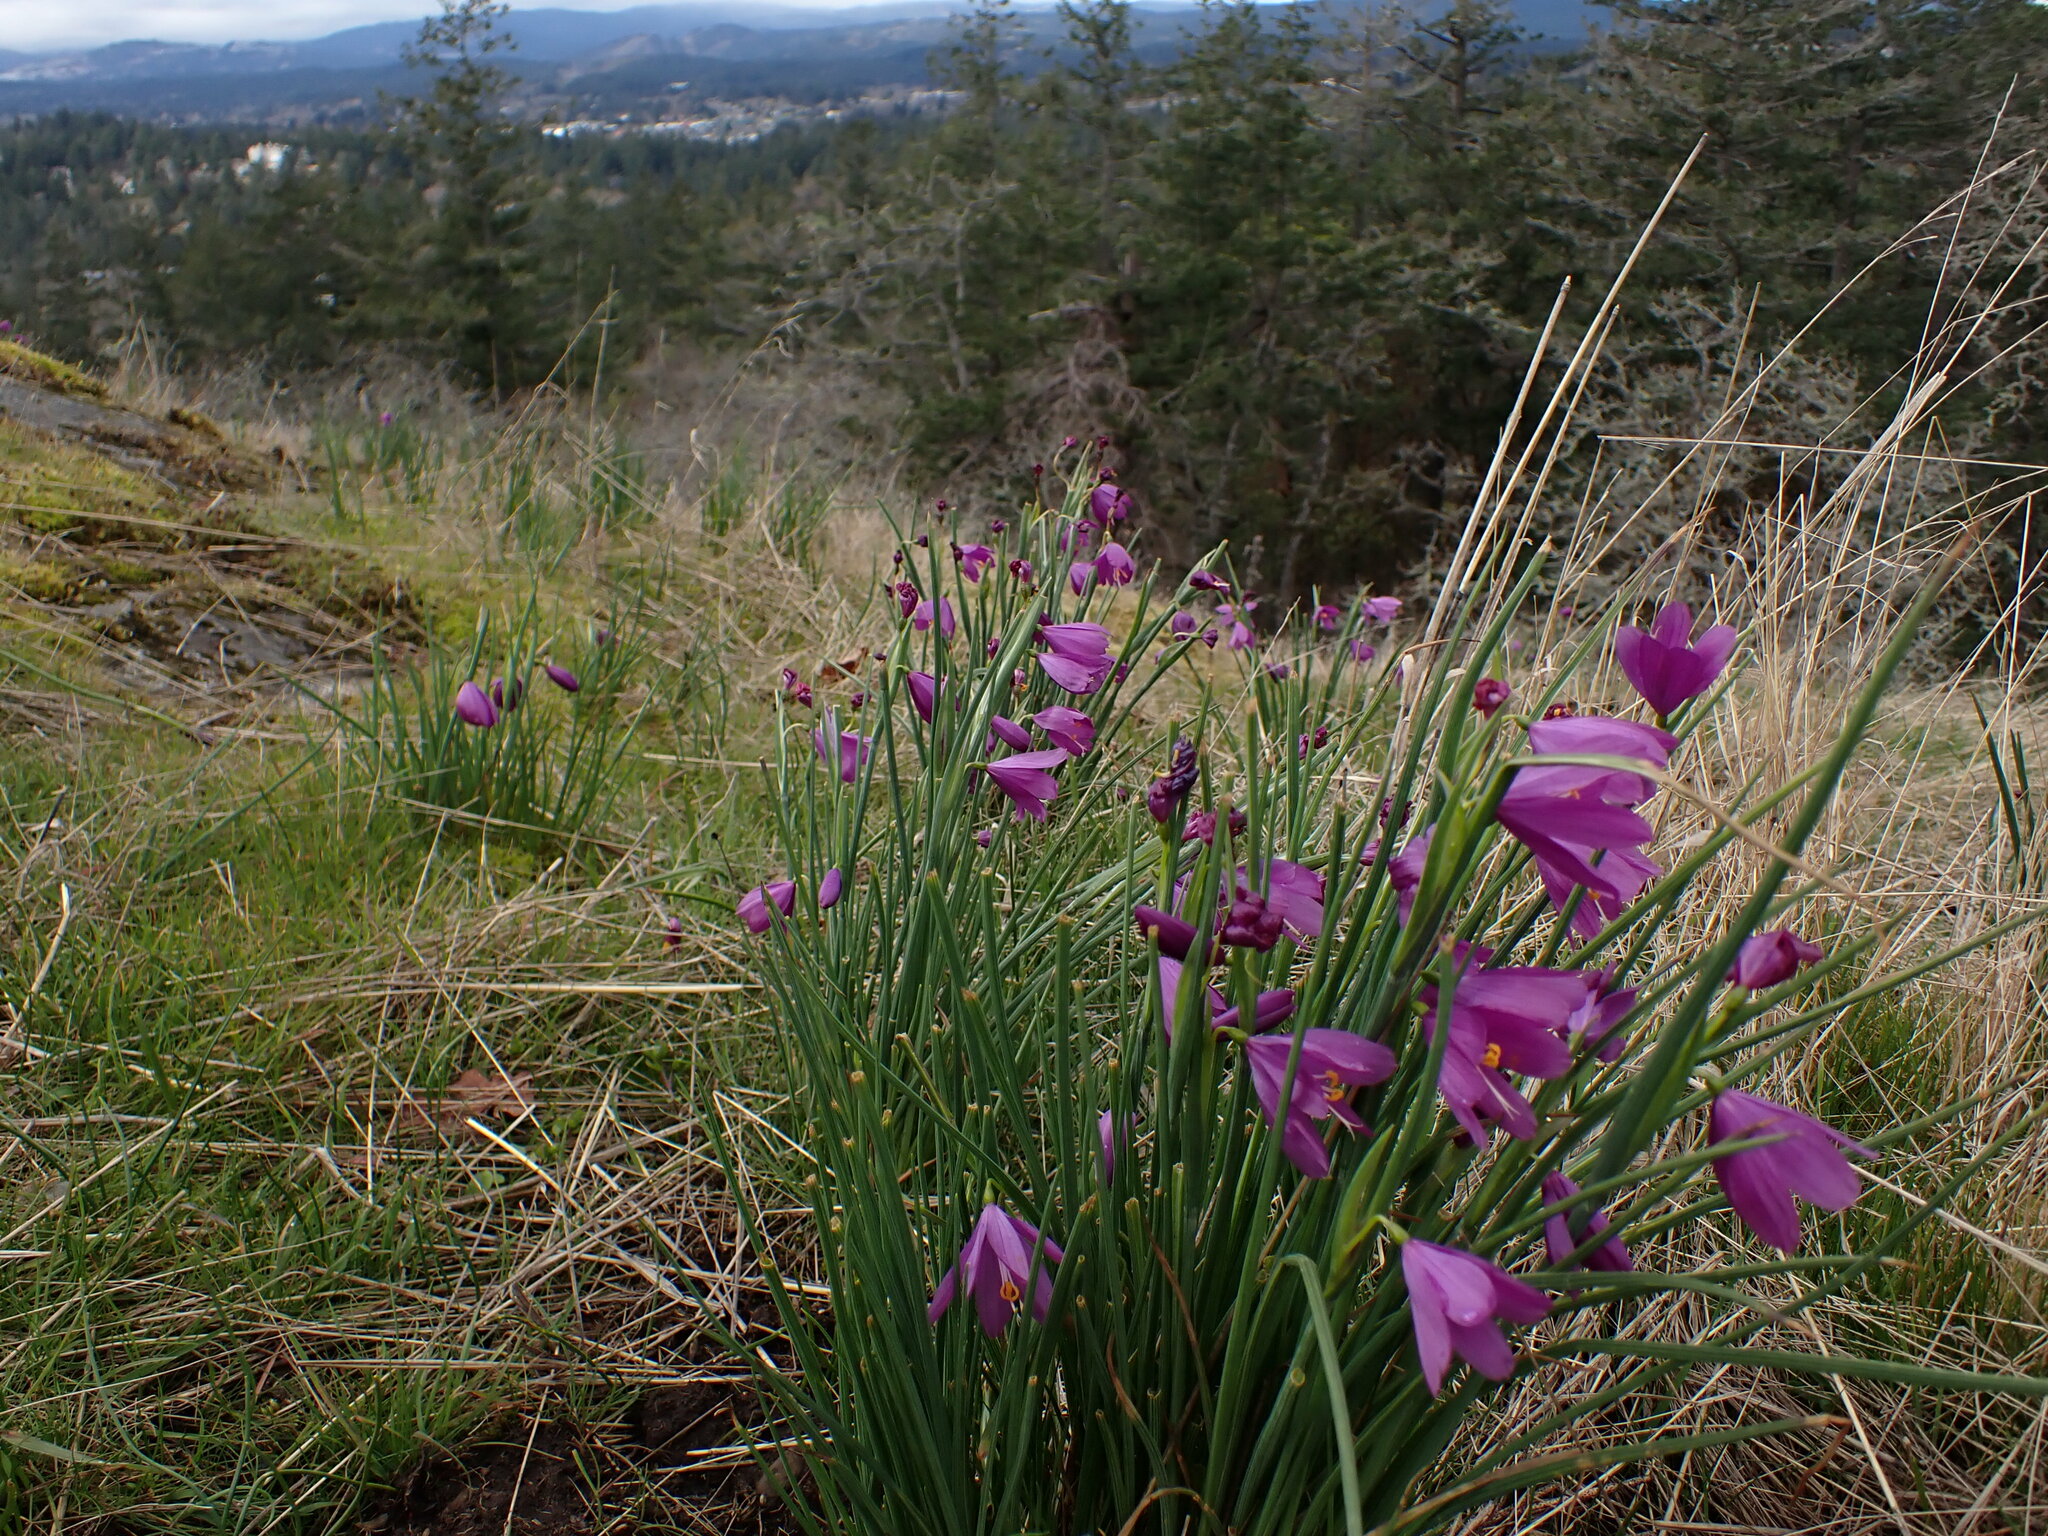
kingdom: Plantae
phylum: Tracheophyta
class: Liliopsida
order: Asparagales
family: Iridaceae
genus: Olsynium
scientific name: Olsynium douglasii
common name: Douglas' grasswidow
